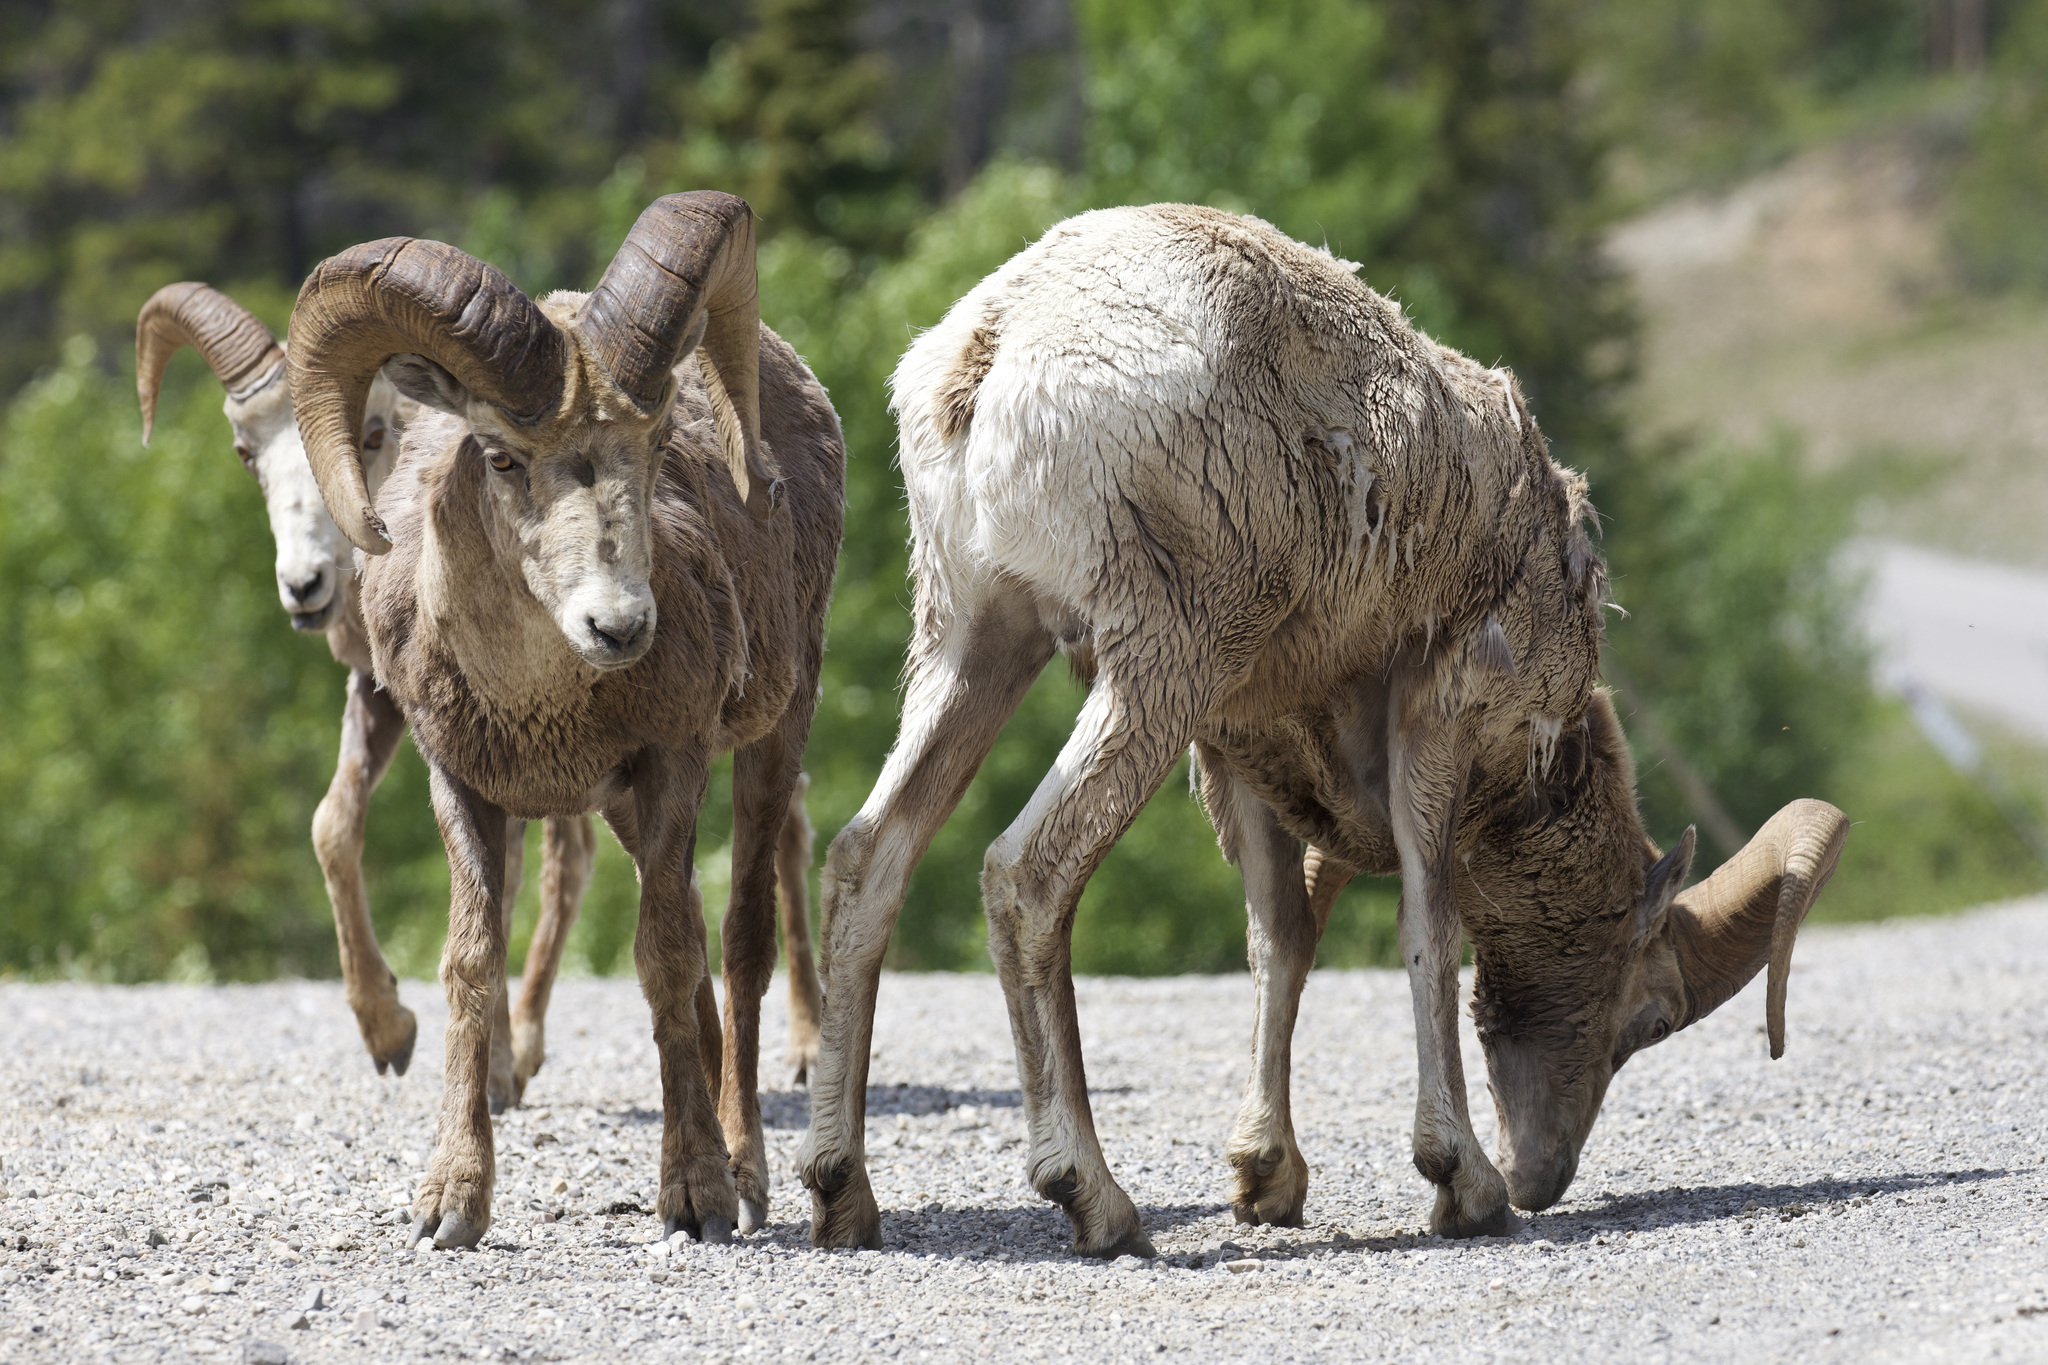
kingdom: Animalia
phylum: Chordata
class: Mammalia
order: Artiodactyla
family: Bovidae
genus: Ovis
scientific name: Ovis canadensis
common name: Bighorn sheep
